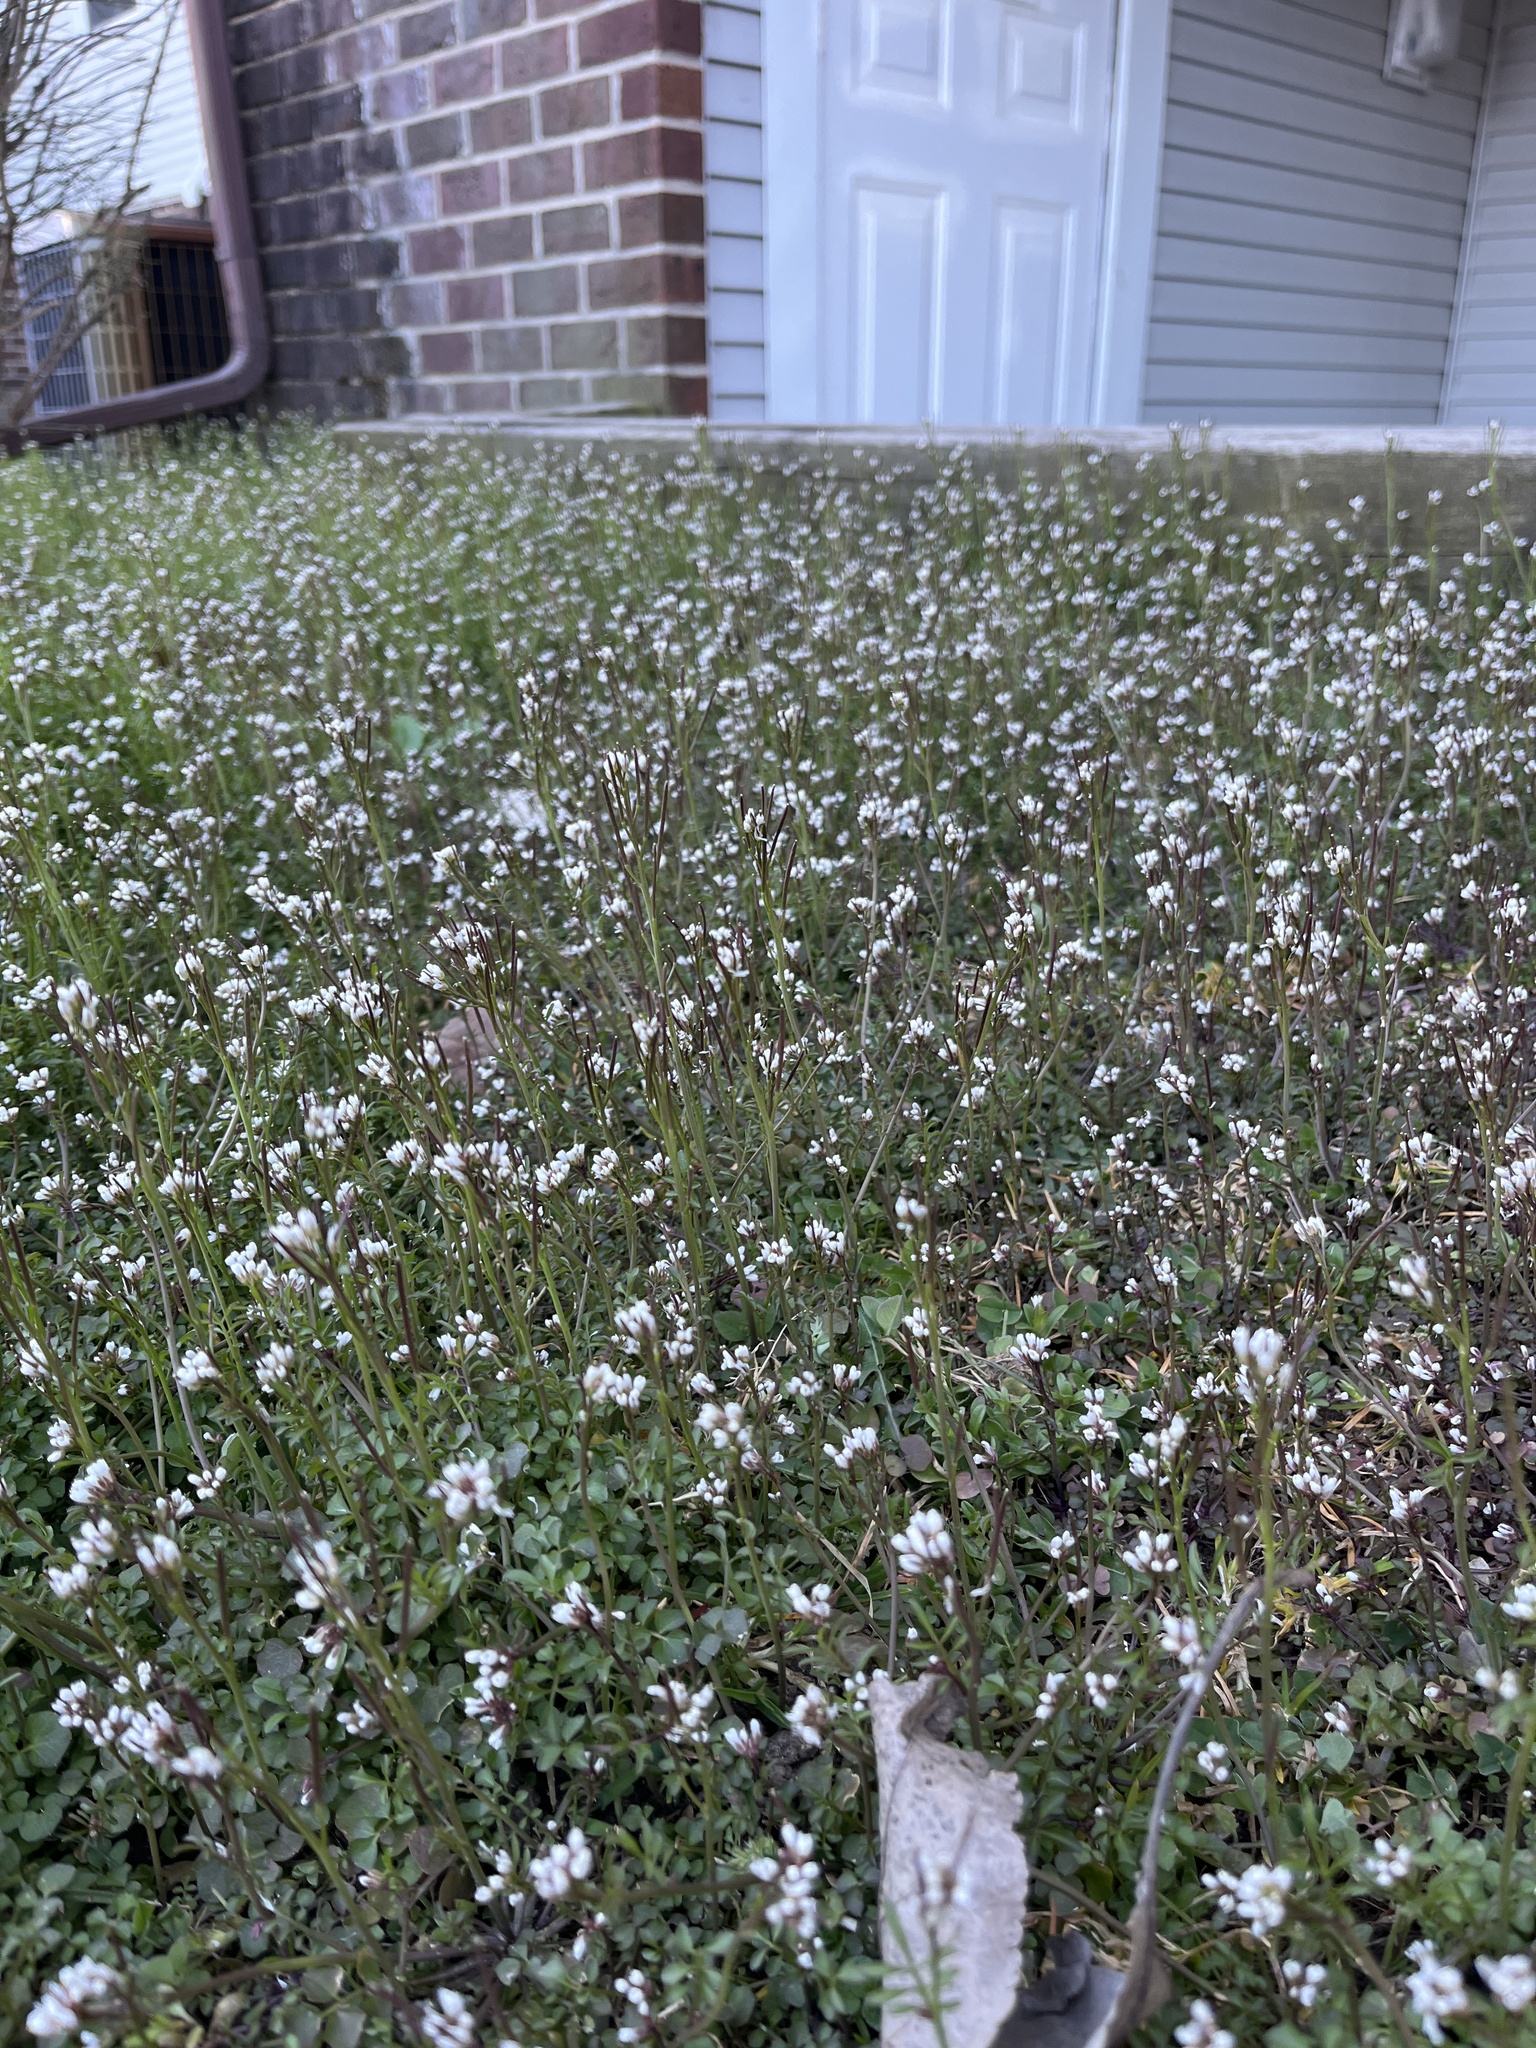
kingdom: Plantae
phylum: Tracheophyta
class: Magnoliopsida
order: Brassicales
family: Brassicaceae
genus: Cardamine
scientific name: Cardamine hirsuta
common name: Hairy bittercress
